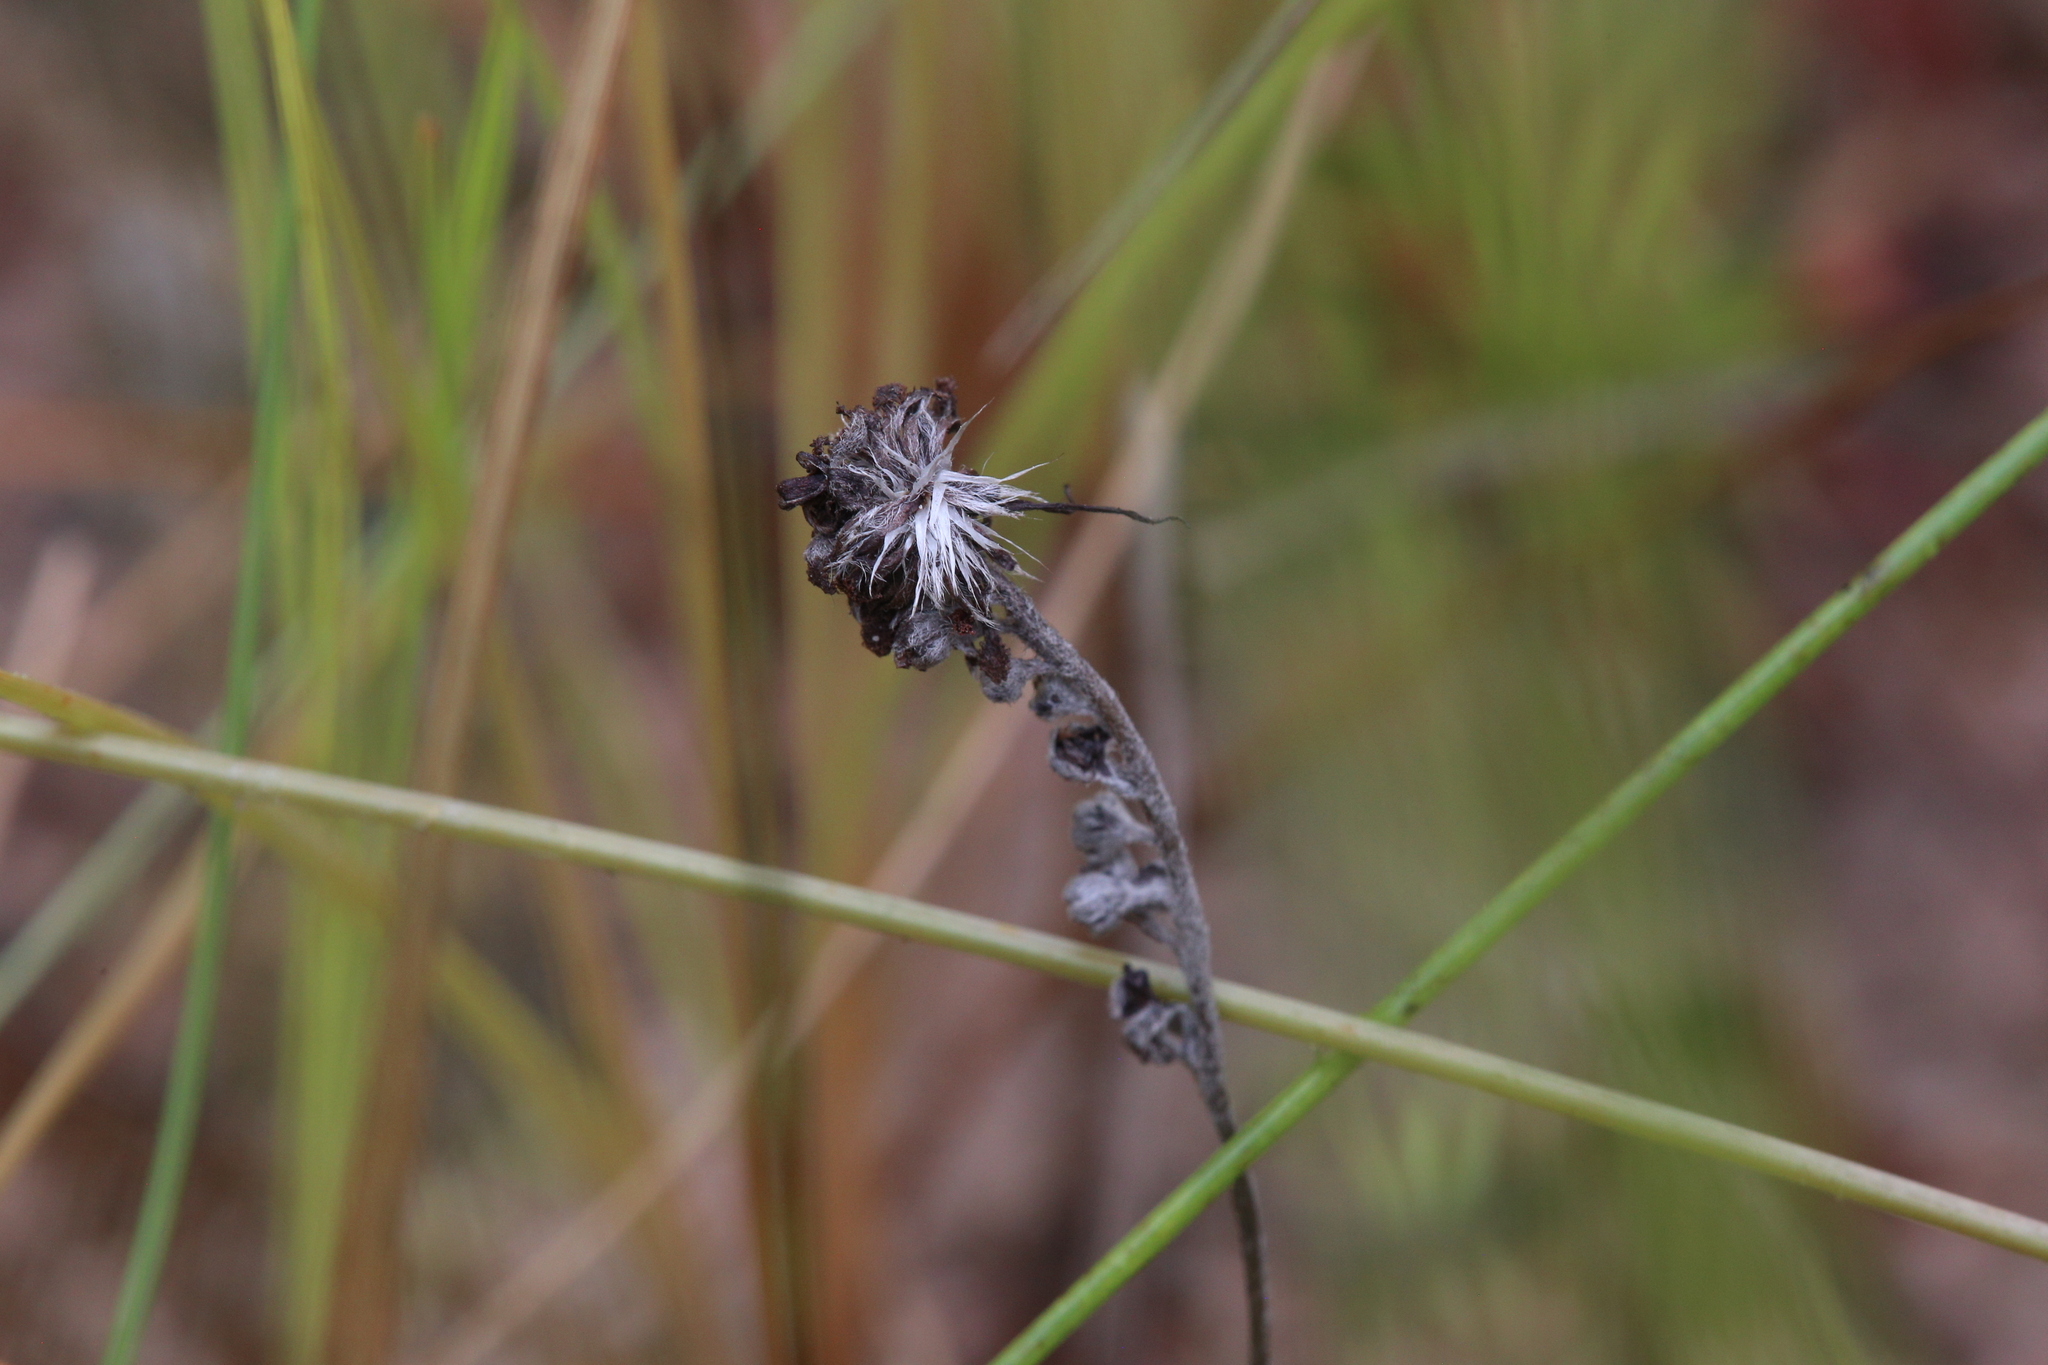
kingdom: Plantae
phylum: Tracheophyta
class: Magnoliopsida
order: Caryophyllales
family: Droseraceae
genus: Drosera
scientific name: Drosera fulva
